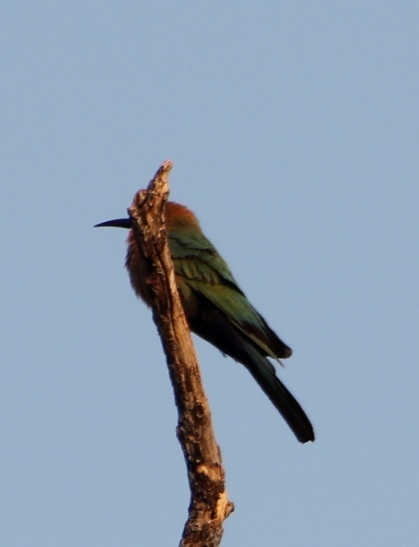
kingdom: Animalia
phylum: Chordata
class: Aves
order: Coraciiformes
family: Meropidae
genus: Merops
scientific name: Merops bullockoides
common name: White-fronted bee-eater
